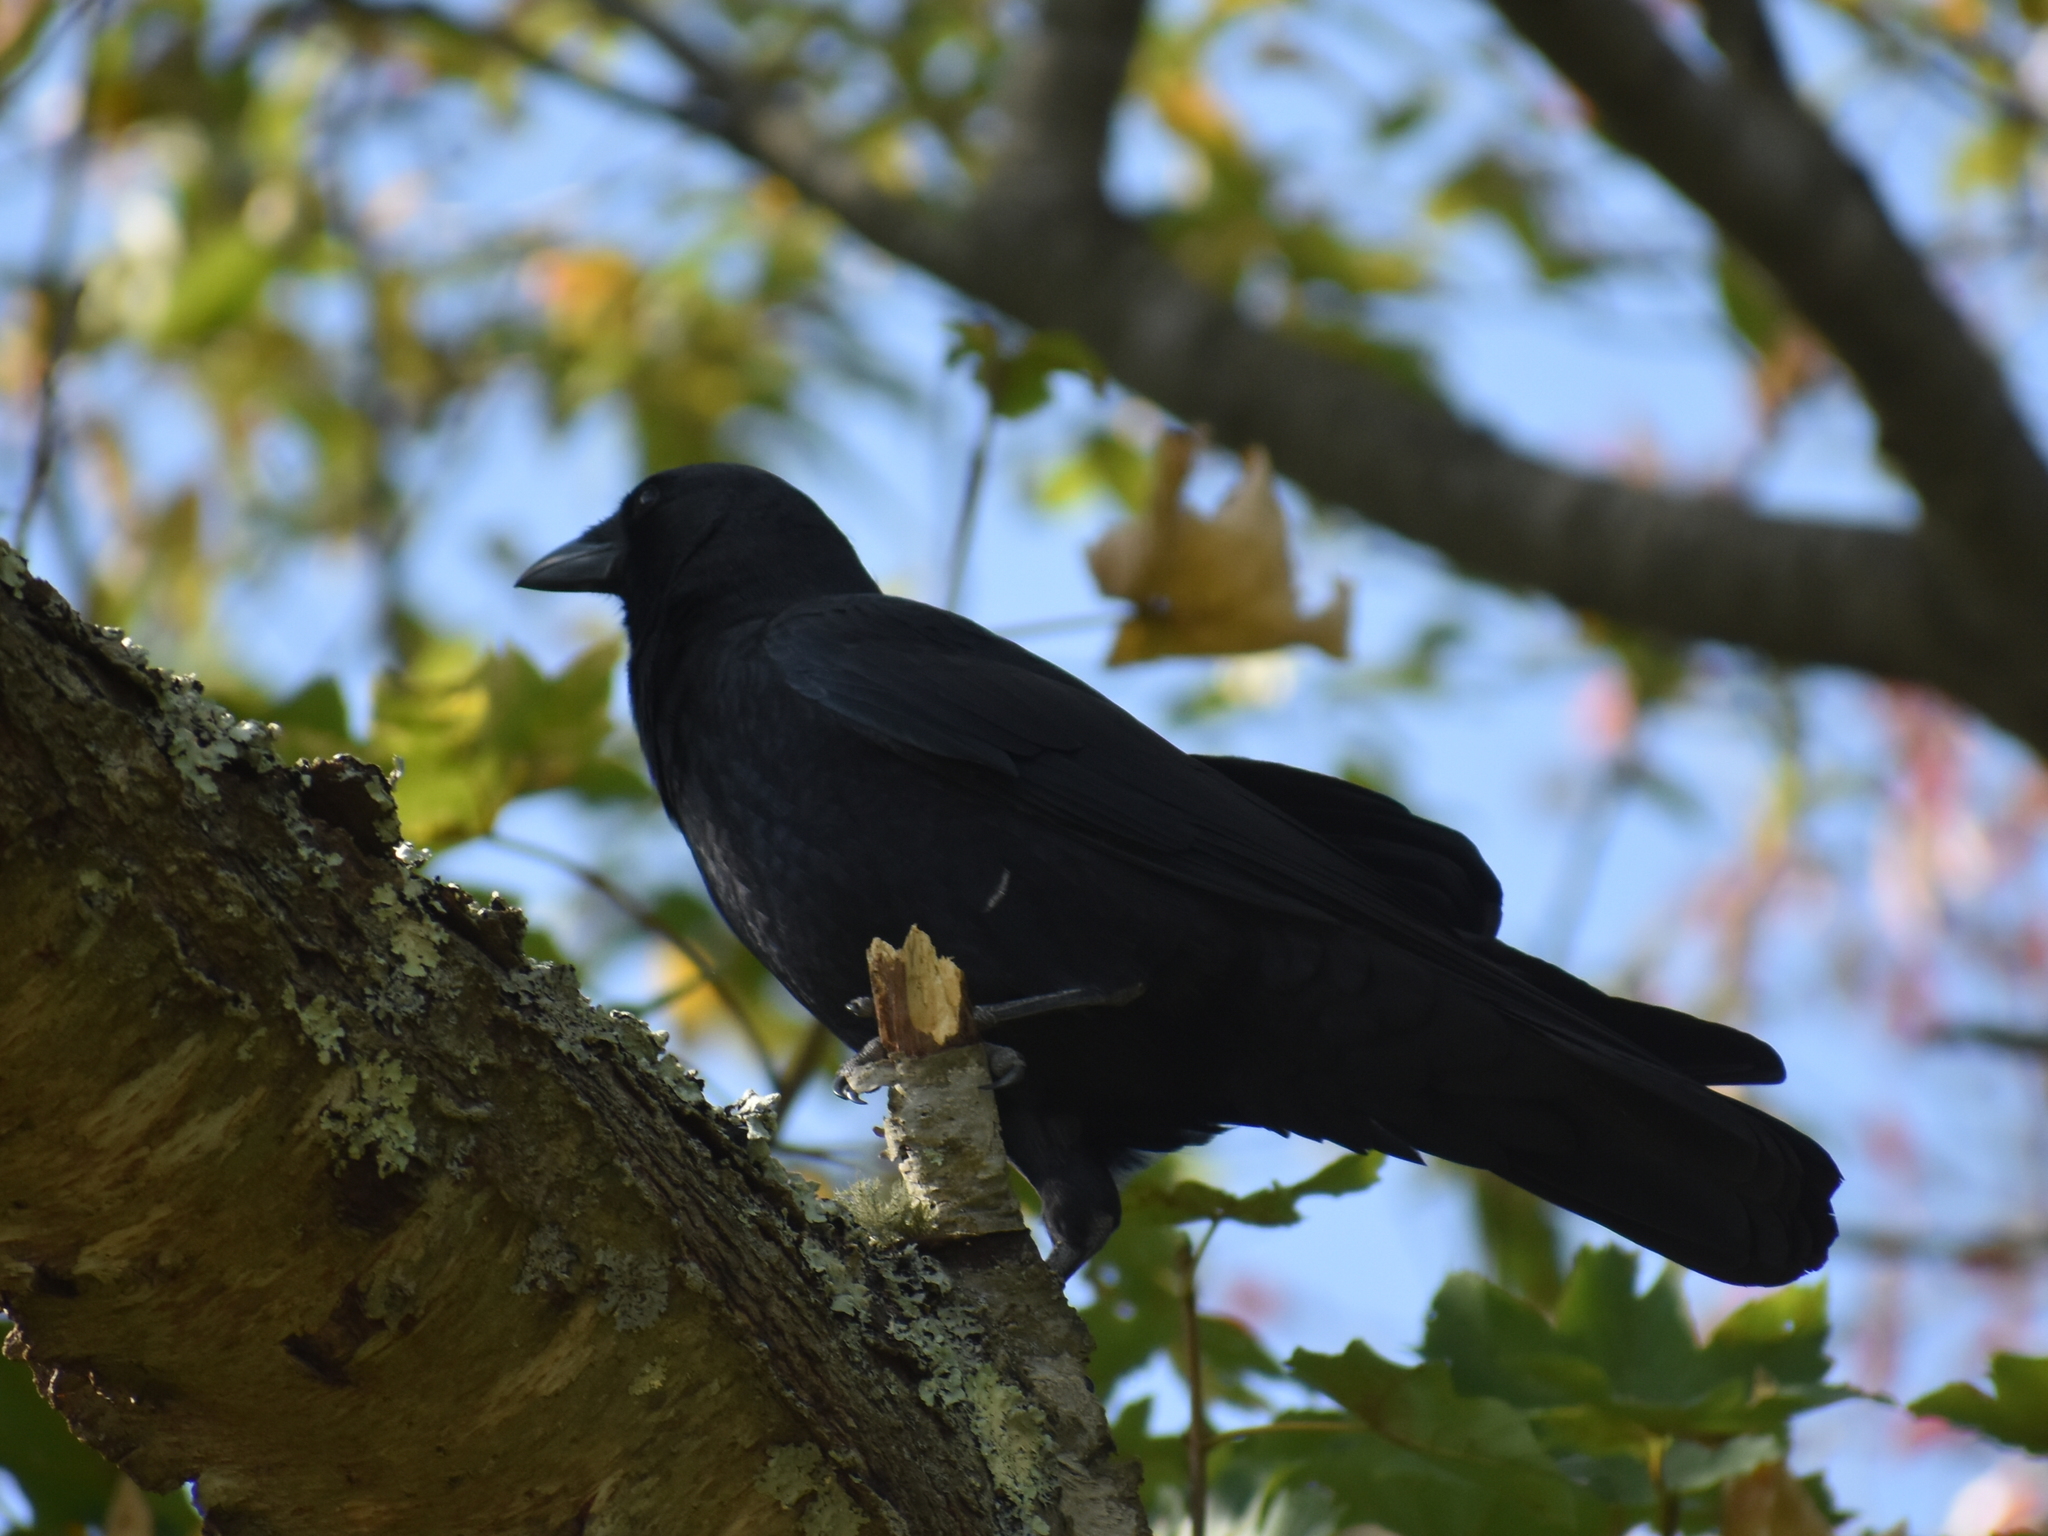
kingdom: Animalia
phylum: Chordata
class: Aves
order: Passeriformes
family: Corvidae
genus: Corvus
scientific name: Corvus brachyrhynchos
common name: American crow
